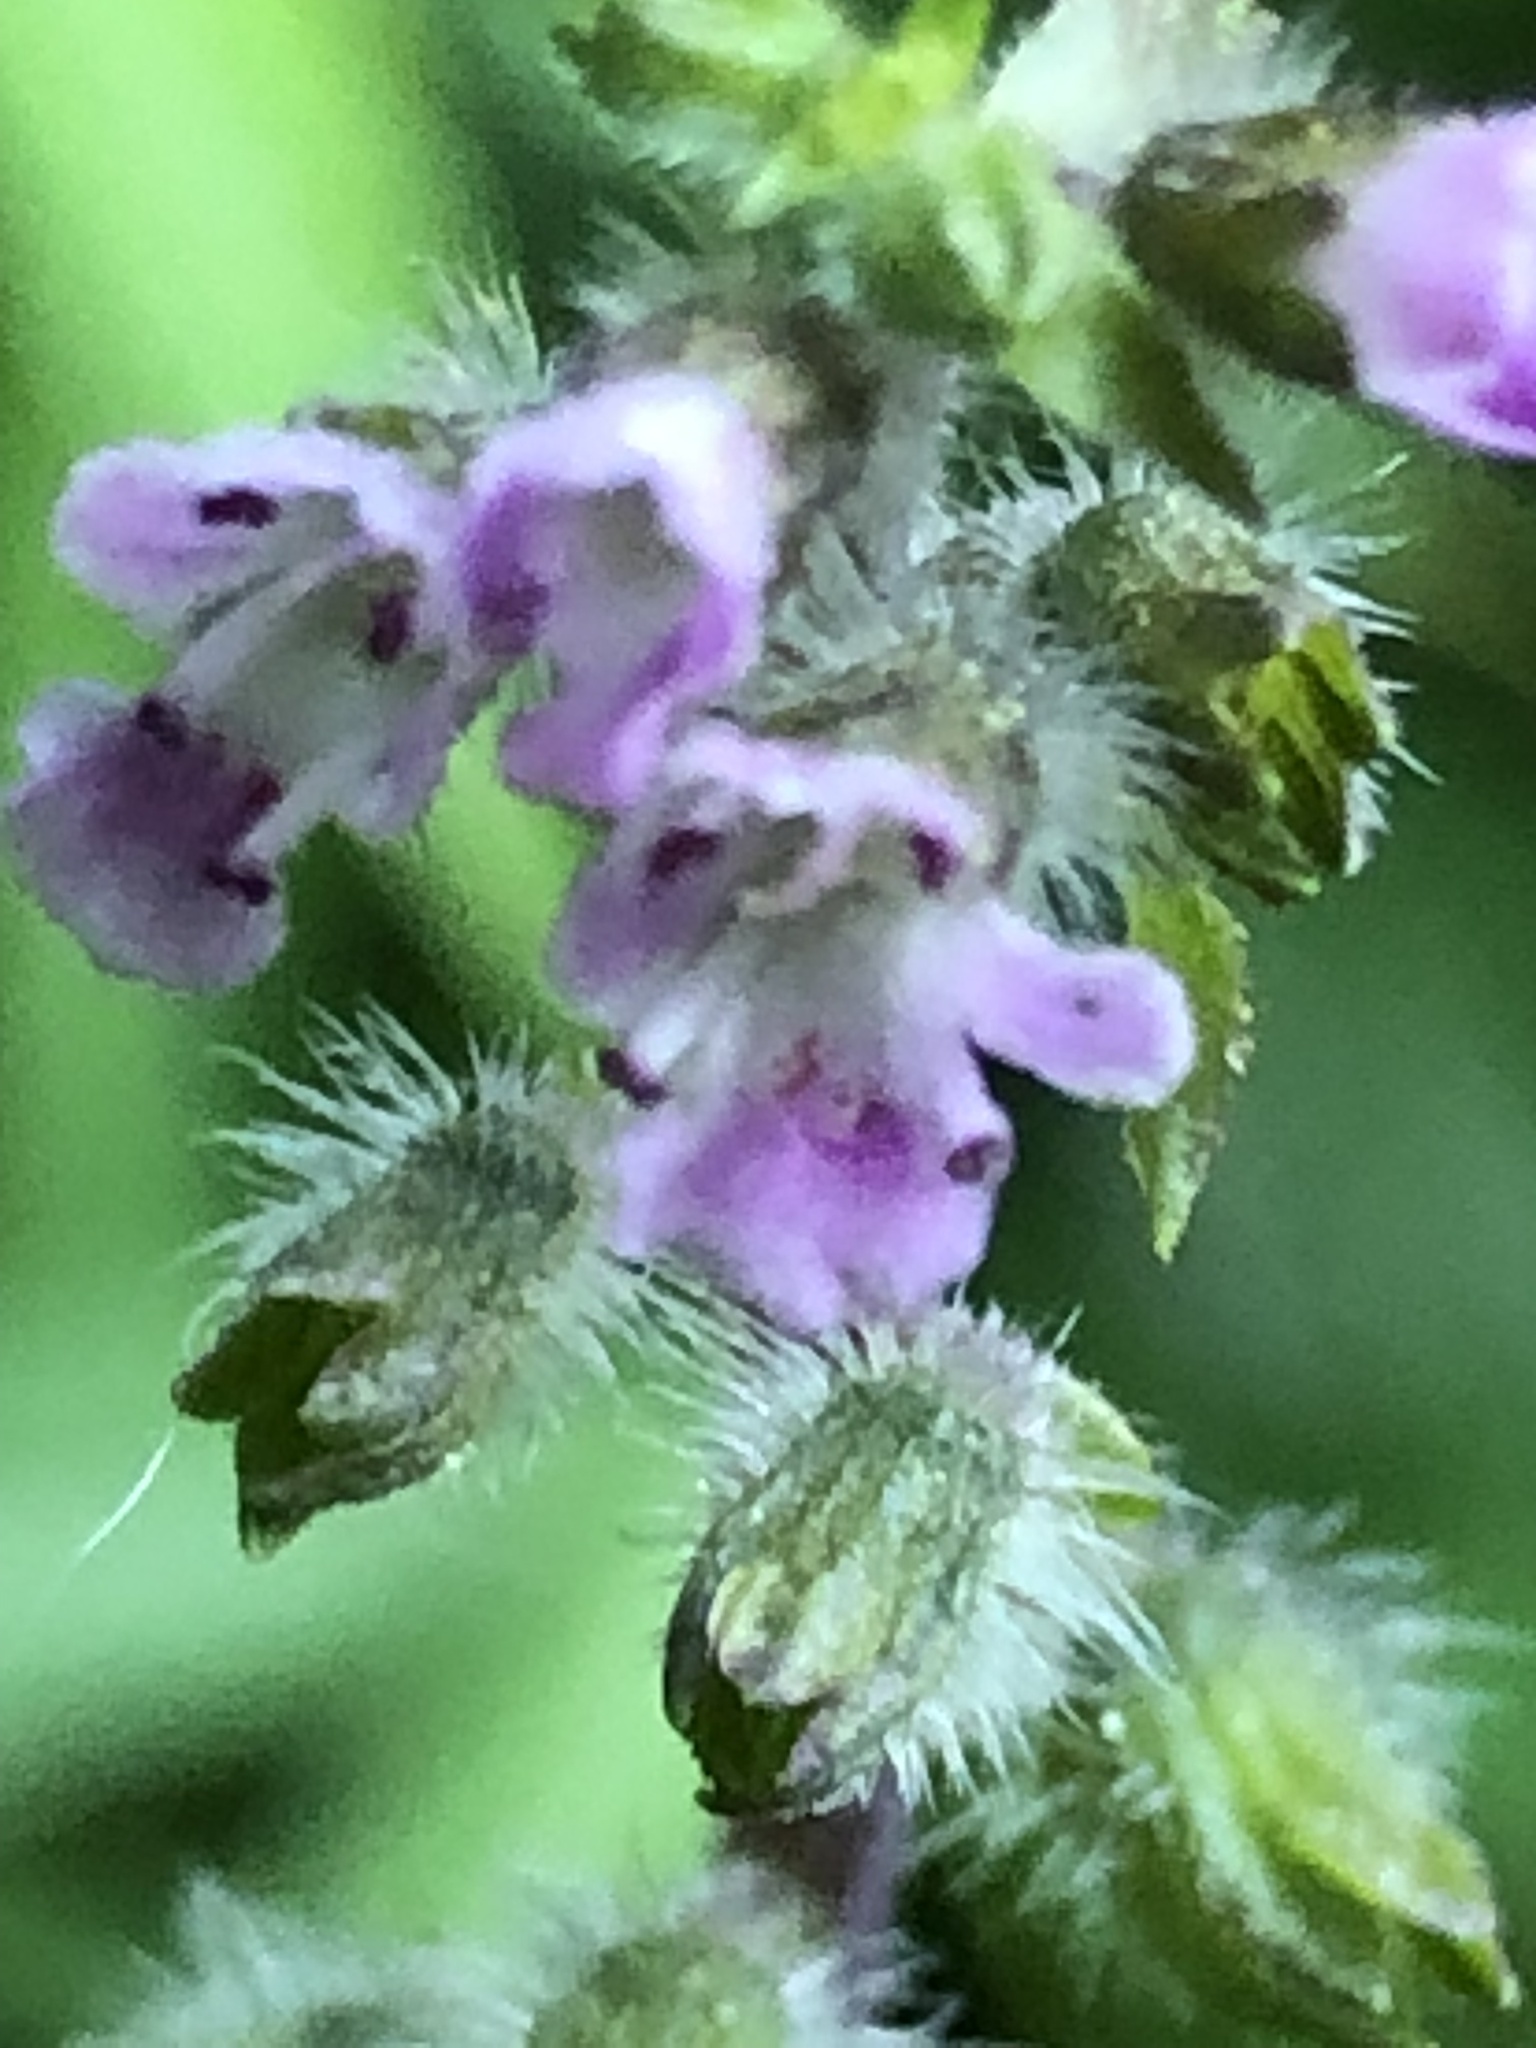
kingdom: Plantae
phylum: Tracheophyta
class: Magnoliopsida
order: Lamiales
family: Lamiaceae
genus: Perilla
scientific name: Perilla frutescens
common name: Perilla
